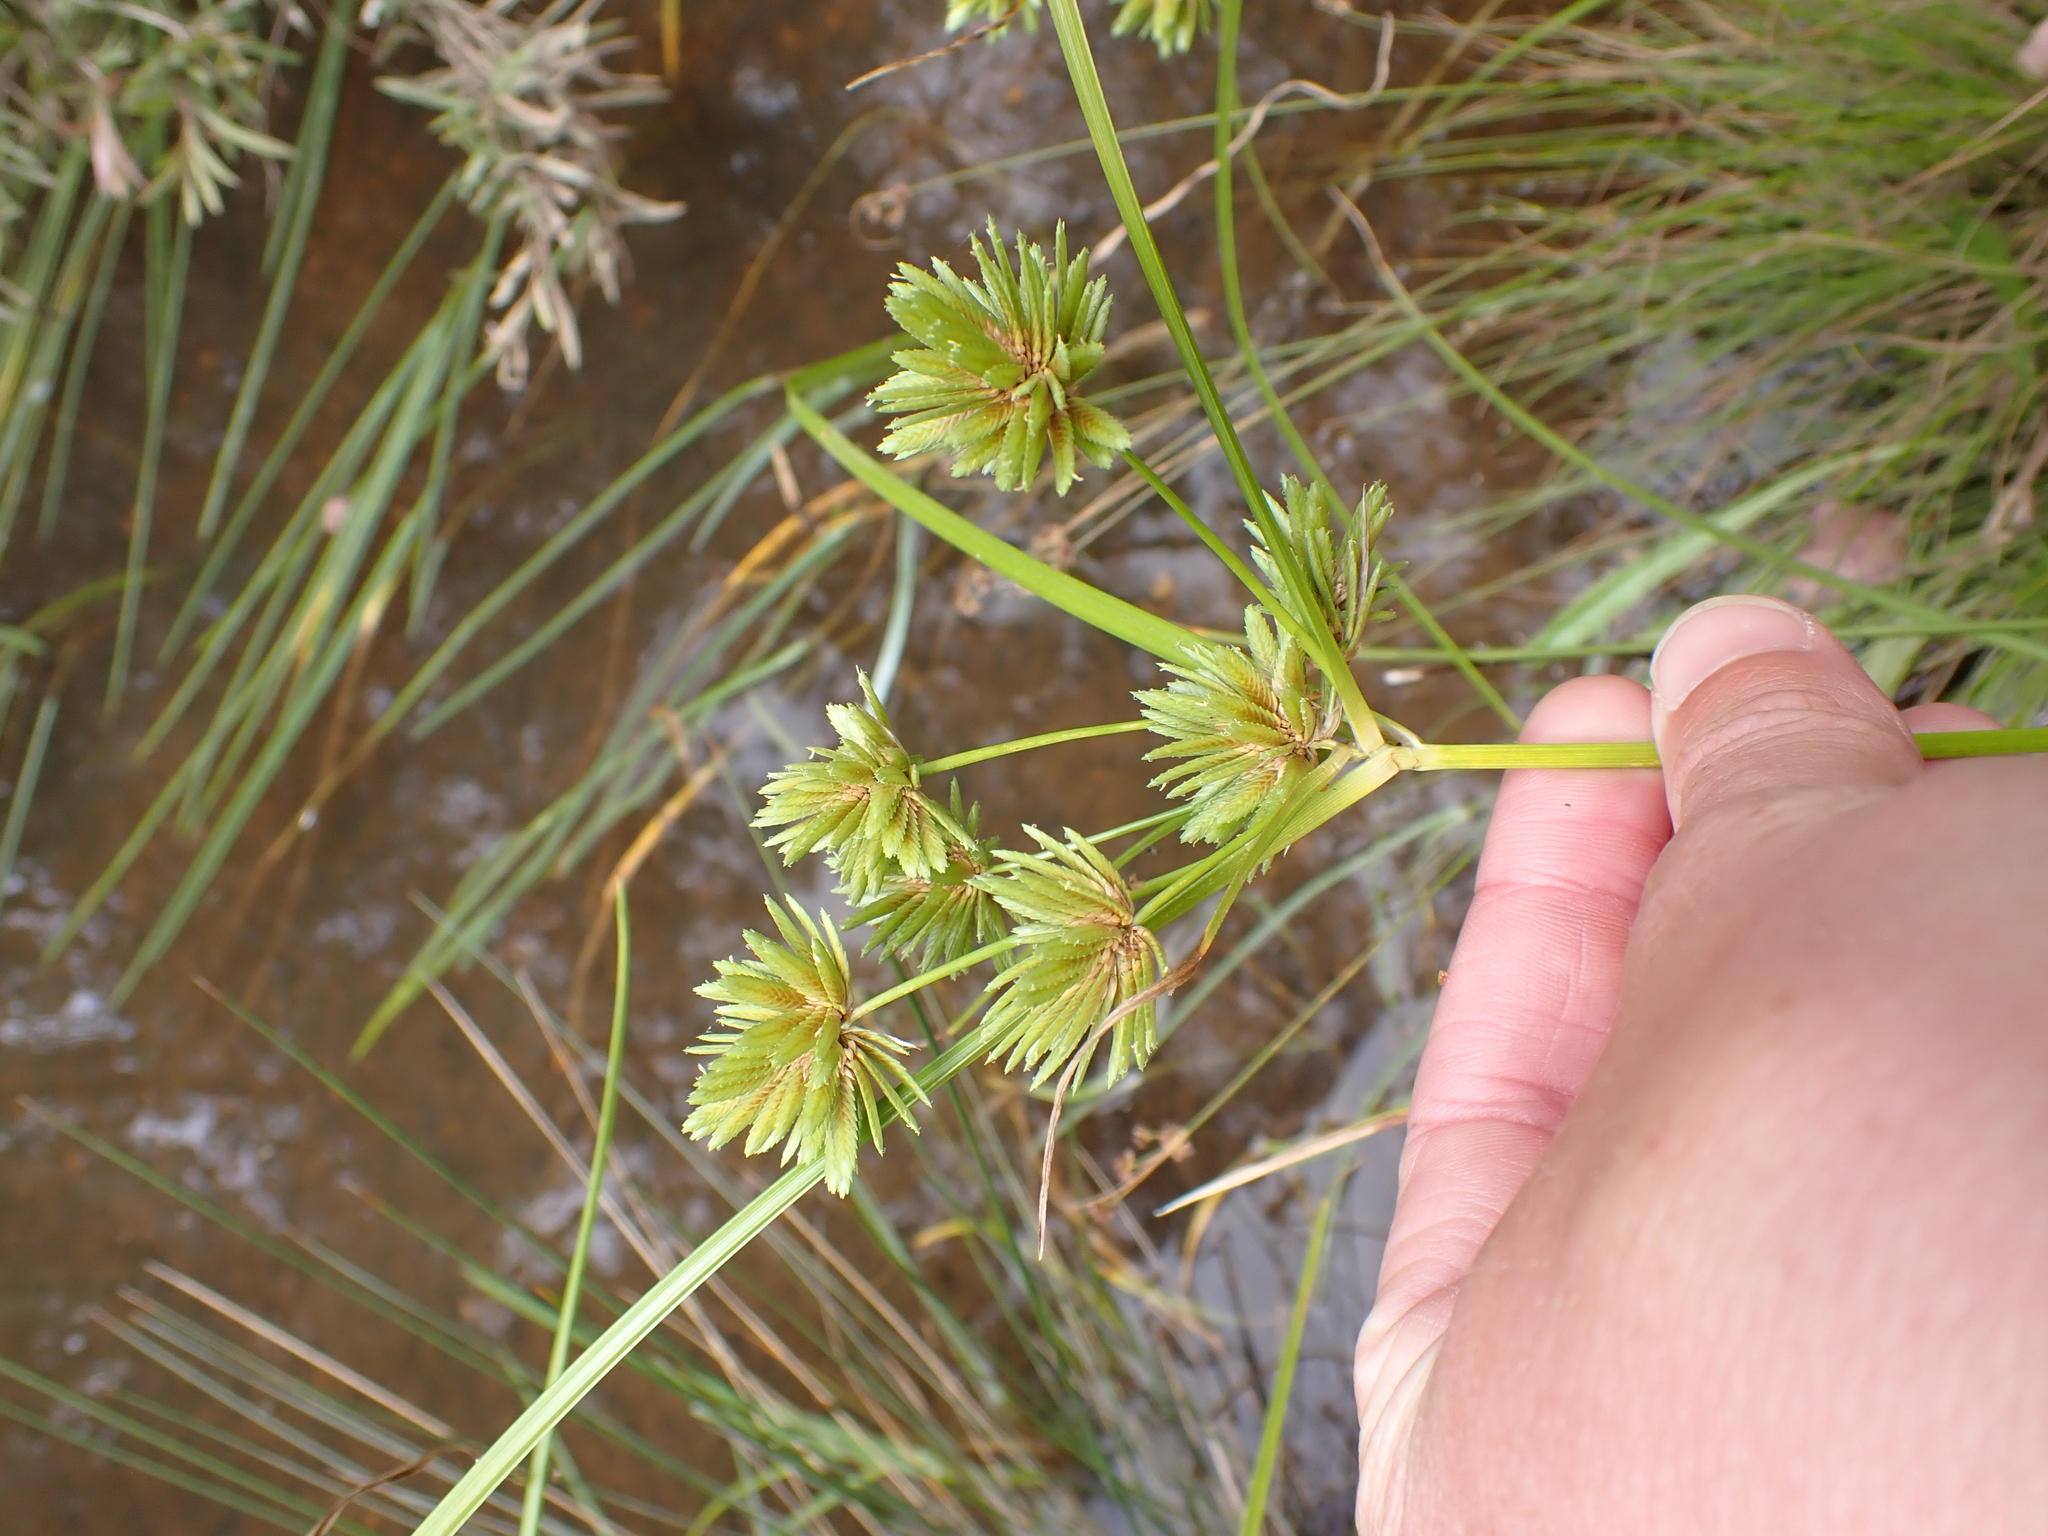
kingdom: Plantae
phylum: Tracheophyta
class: Liliopsida
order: Poales
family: Cyperaceae
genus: Cyperus
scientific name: Cyperus eragrostis
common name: Tall flatsedge
